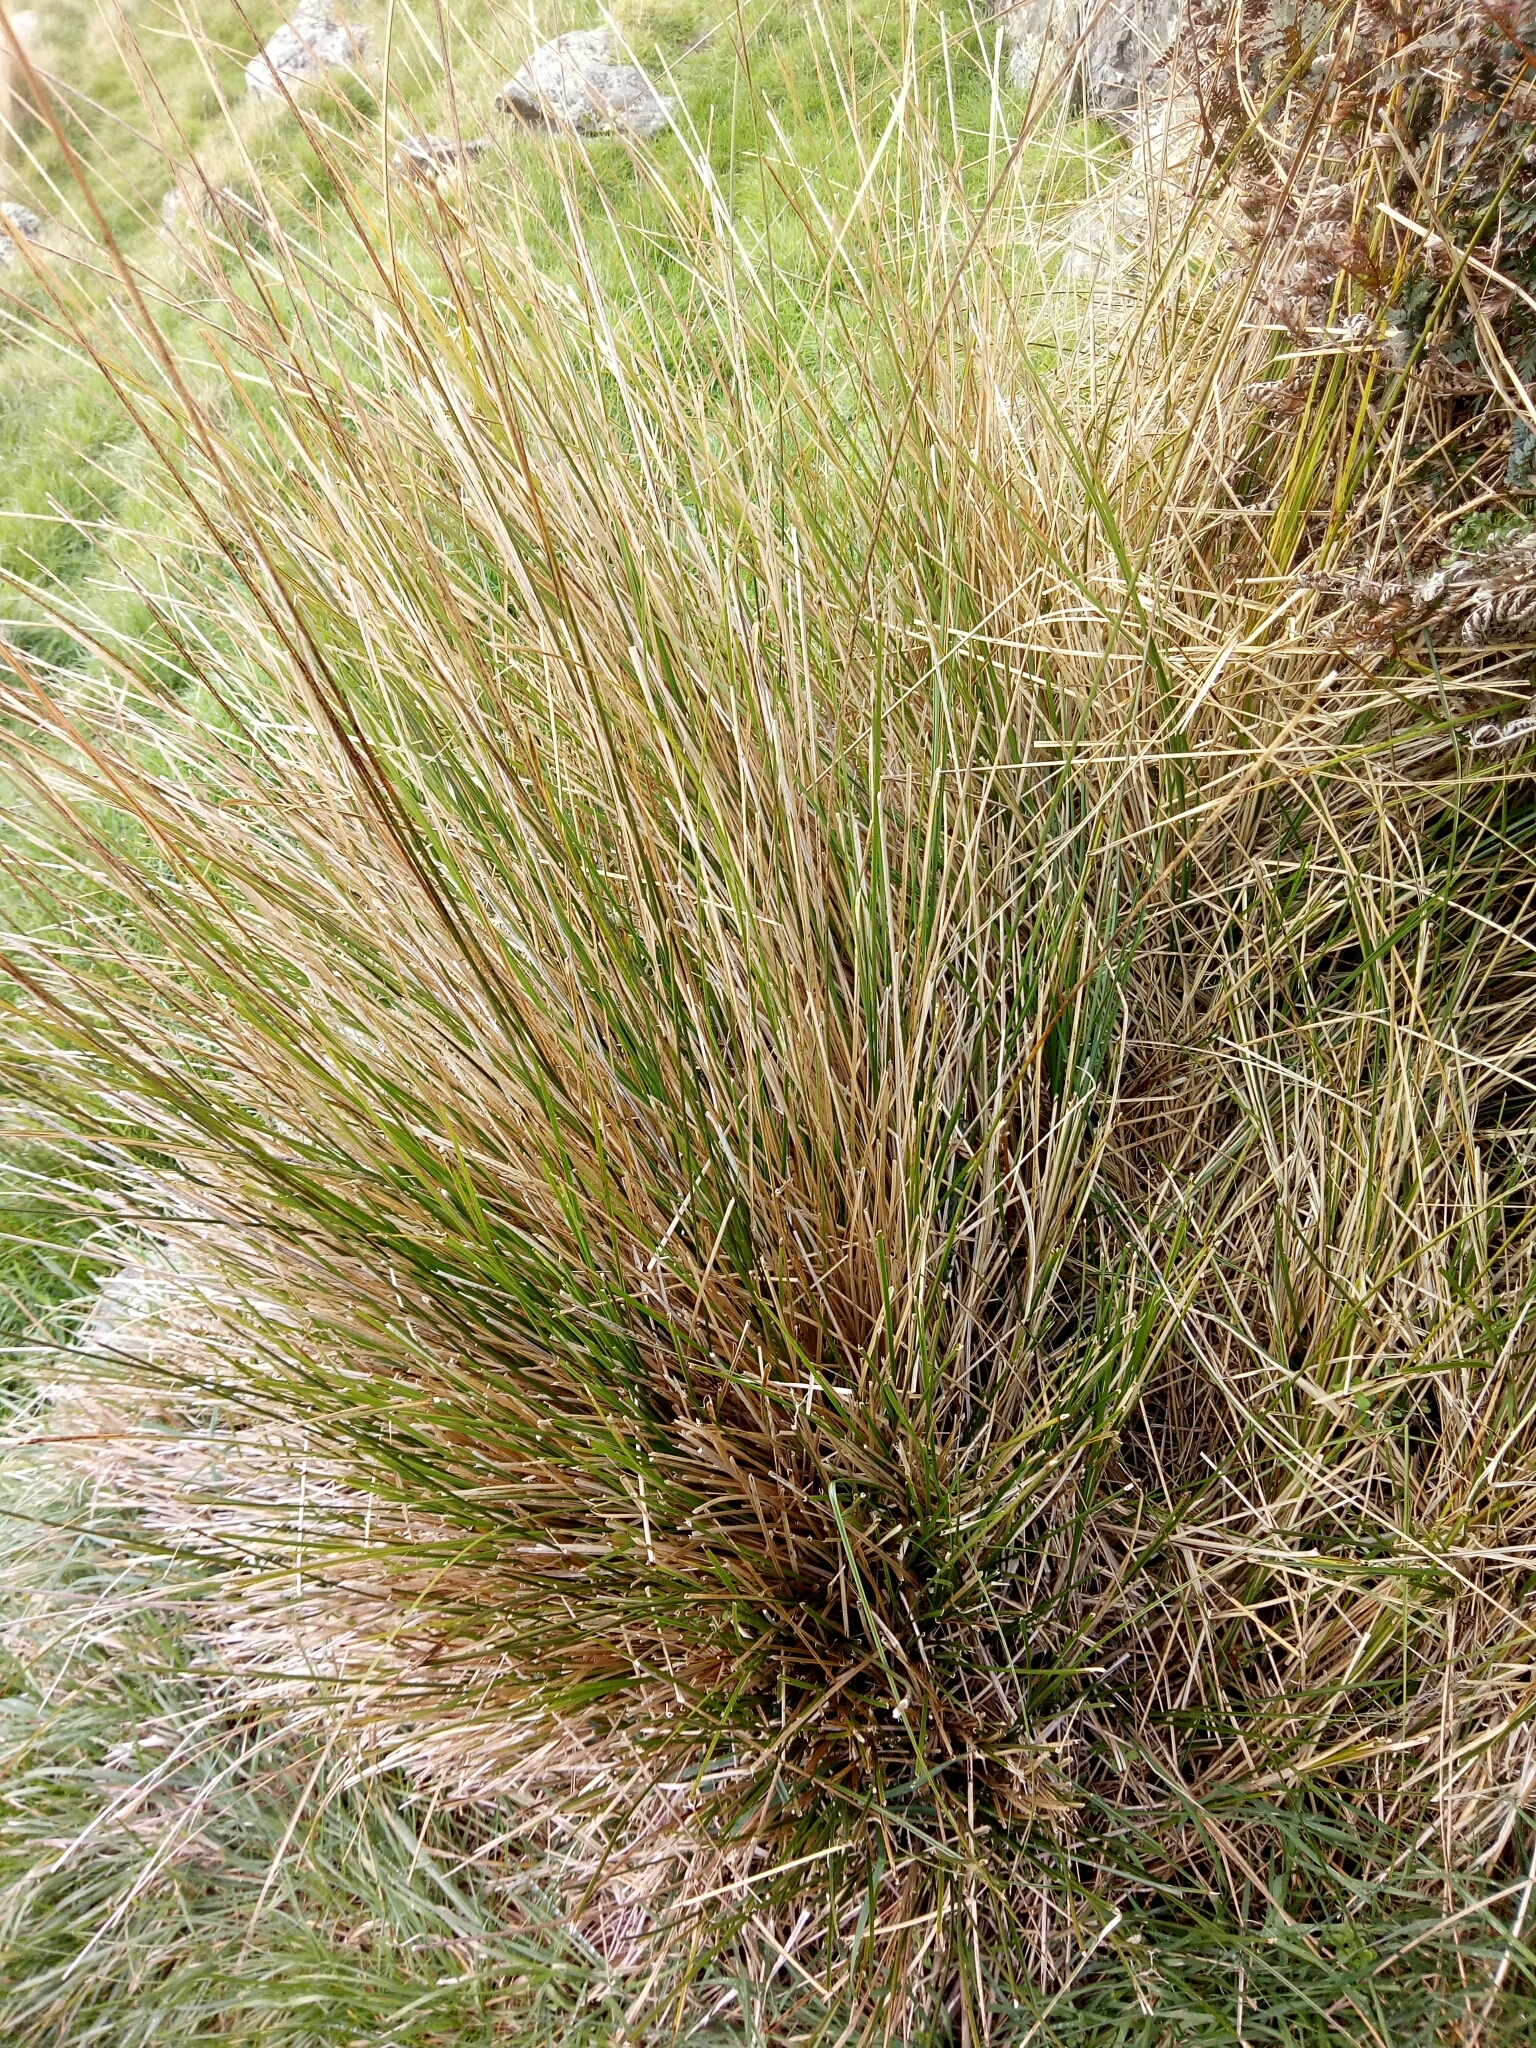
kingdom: Plantae
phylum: Tracheophyta
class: Liliopsida
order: Poales
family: Cyperaceae
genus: Carex
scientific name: Carex virgata
